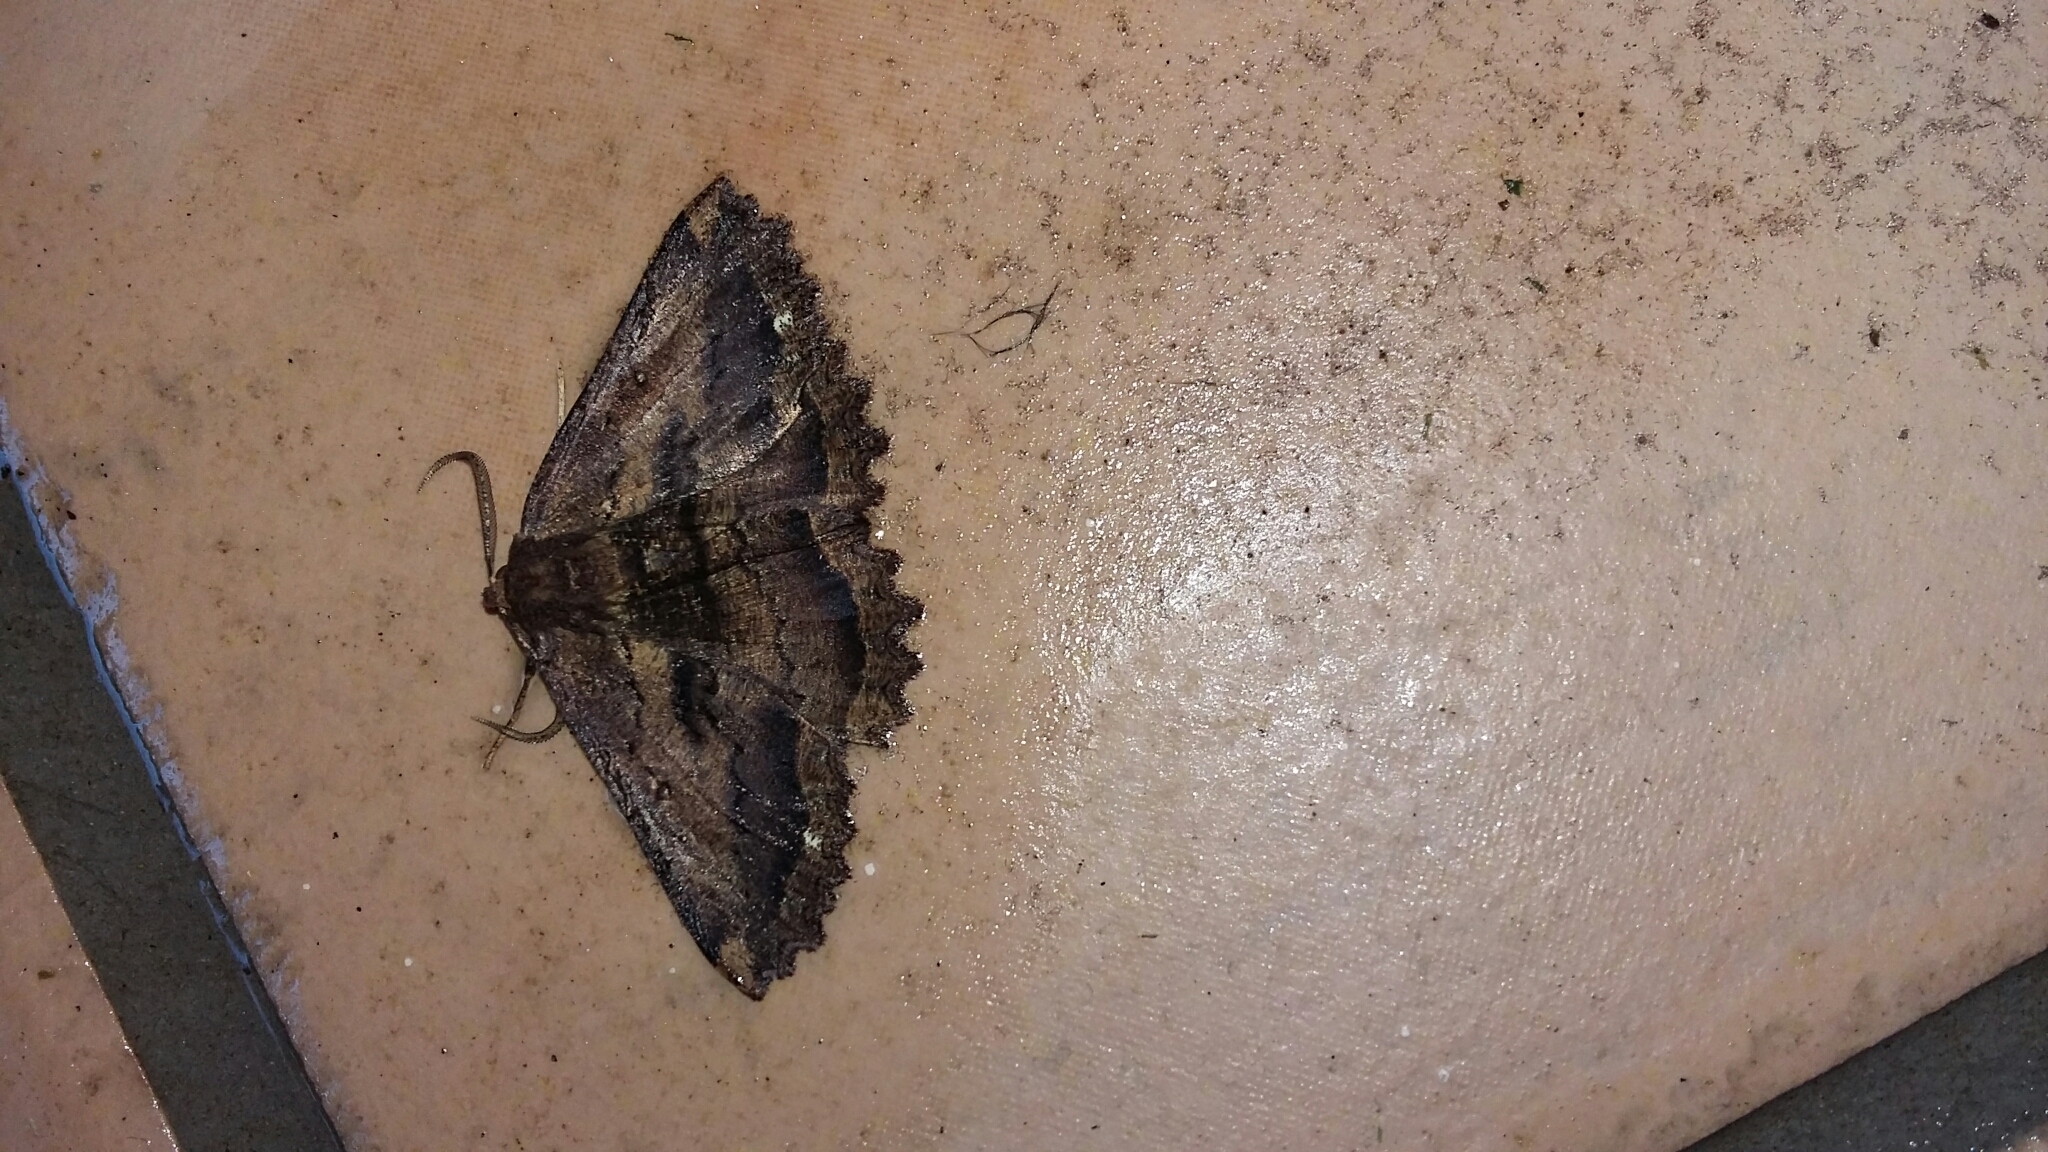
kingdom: Animalia
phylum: Arthropoda
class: Insecta
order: Lepidoptera
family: Geometridae
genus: Gellonia
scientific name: Gellonia dejectaria
